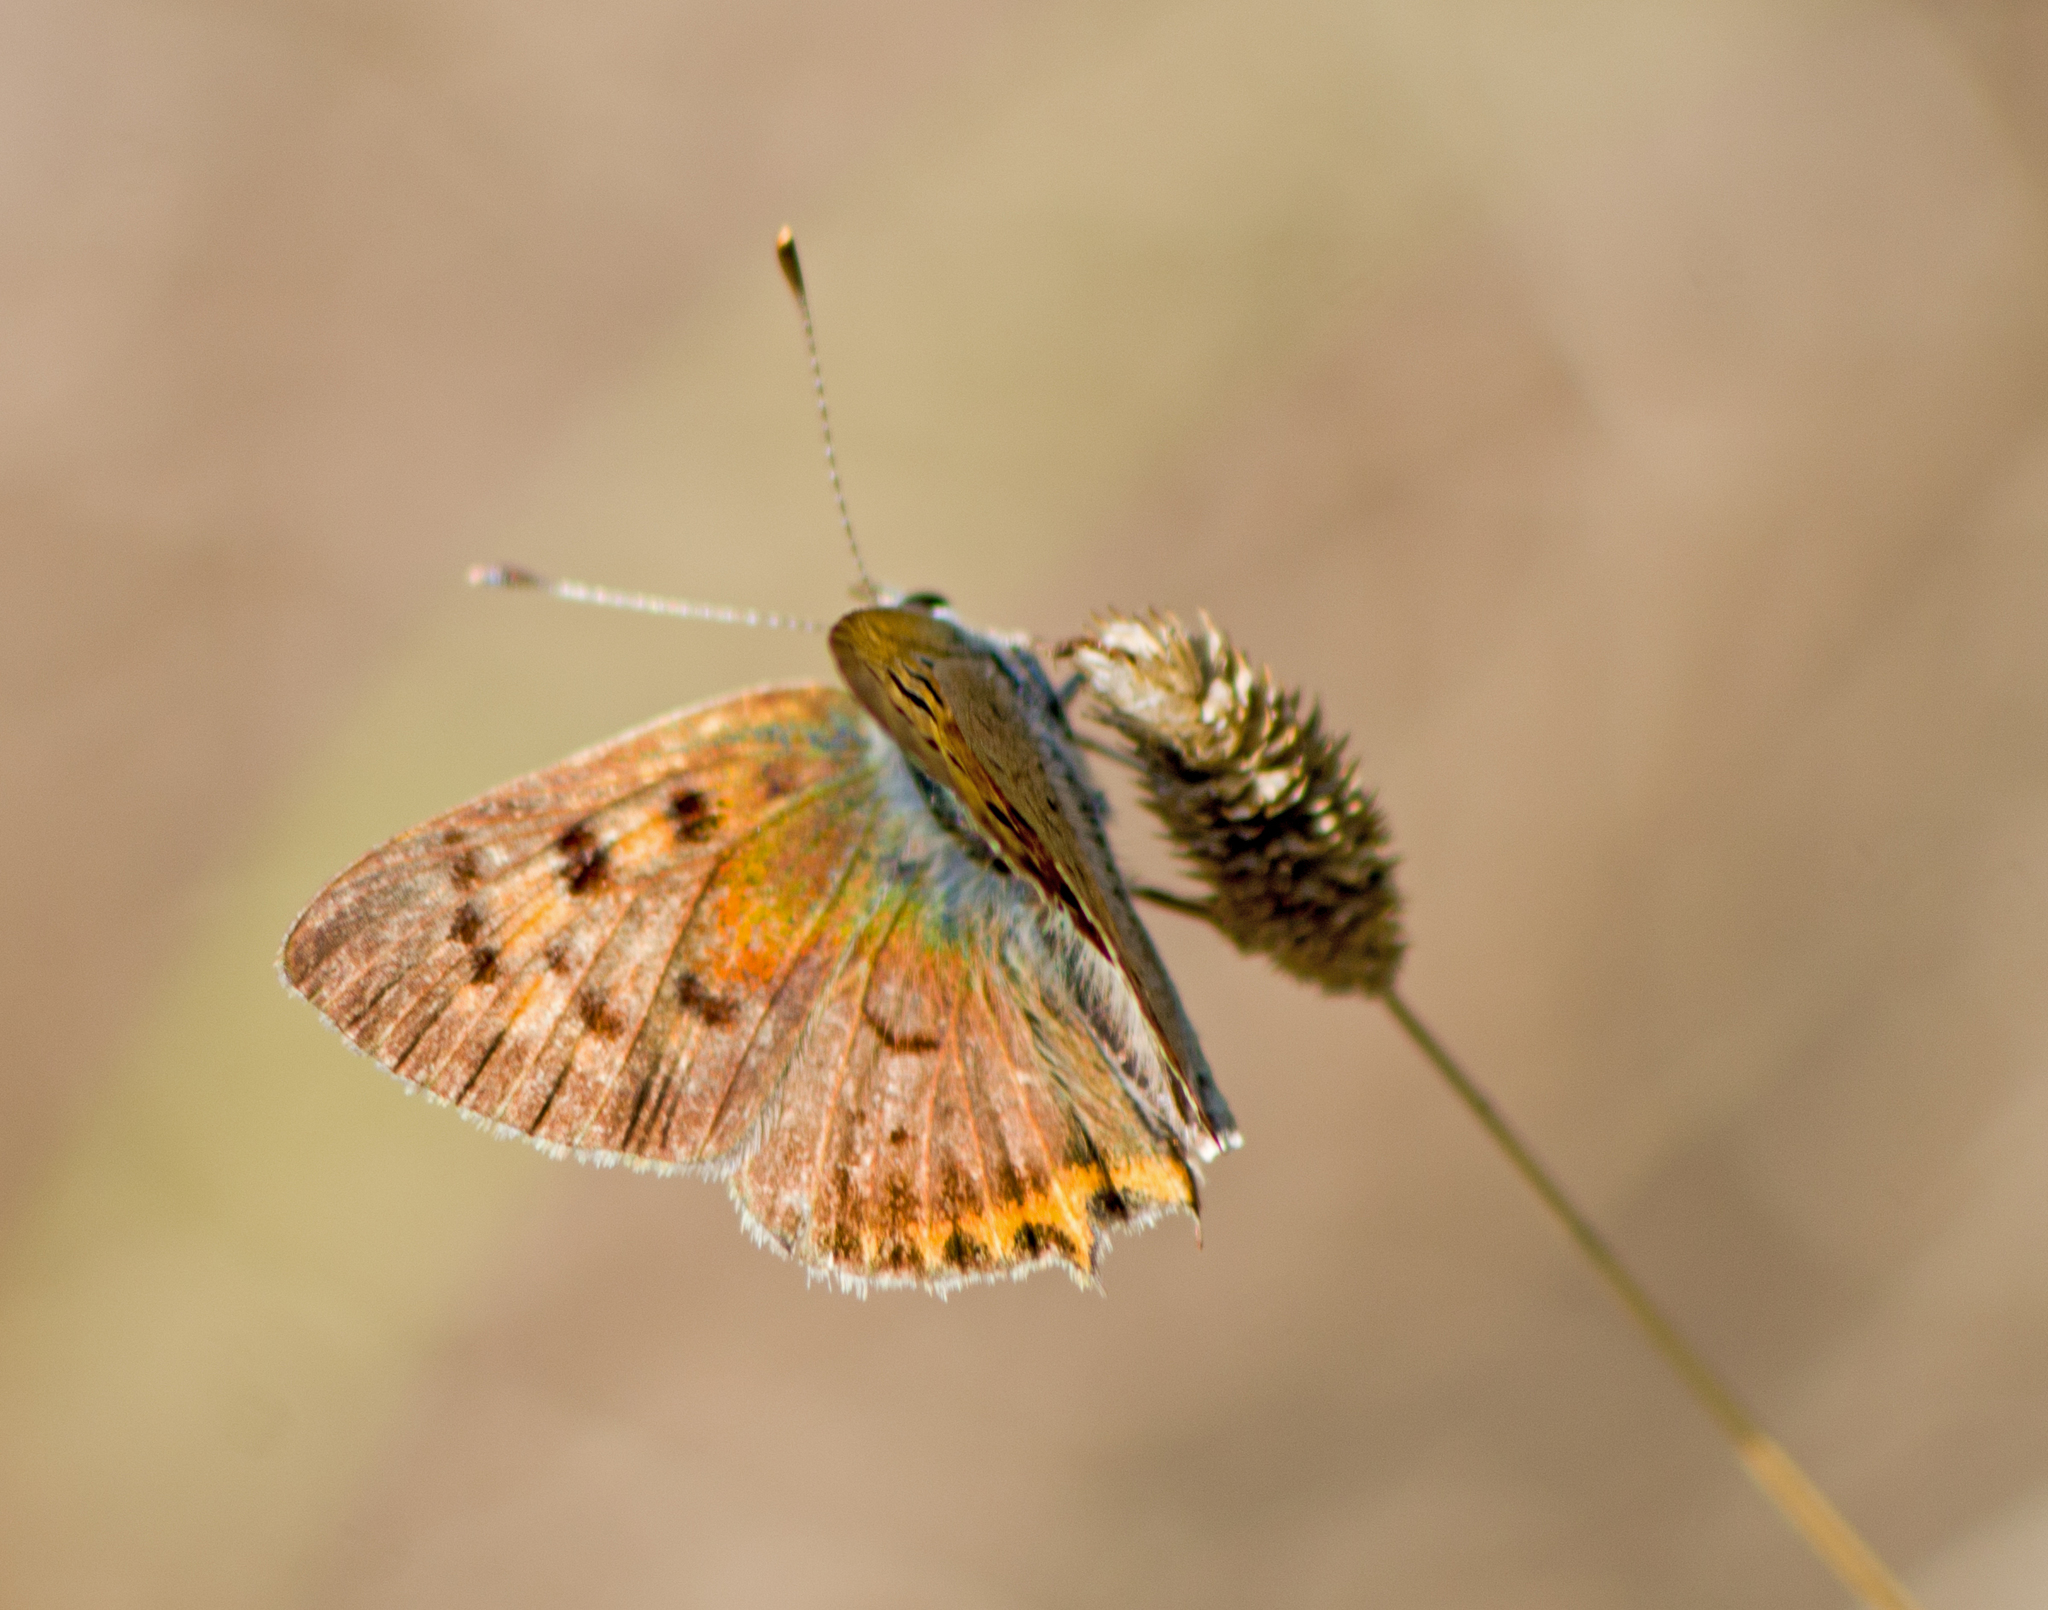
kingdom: Animalia
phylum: Arthropoda
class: Insecta
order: Lepidoptera
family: Lycaenidae
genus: Lycaena
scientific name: Lycaena phlaeas
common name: Small copper
